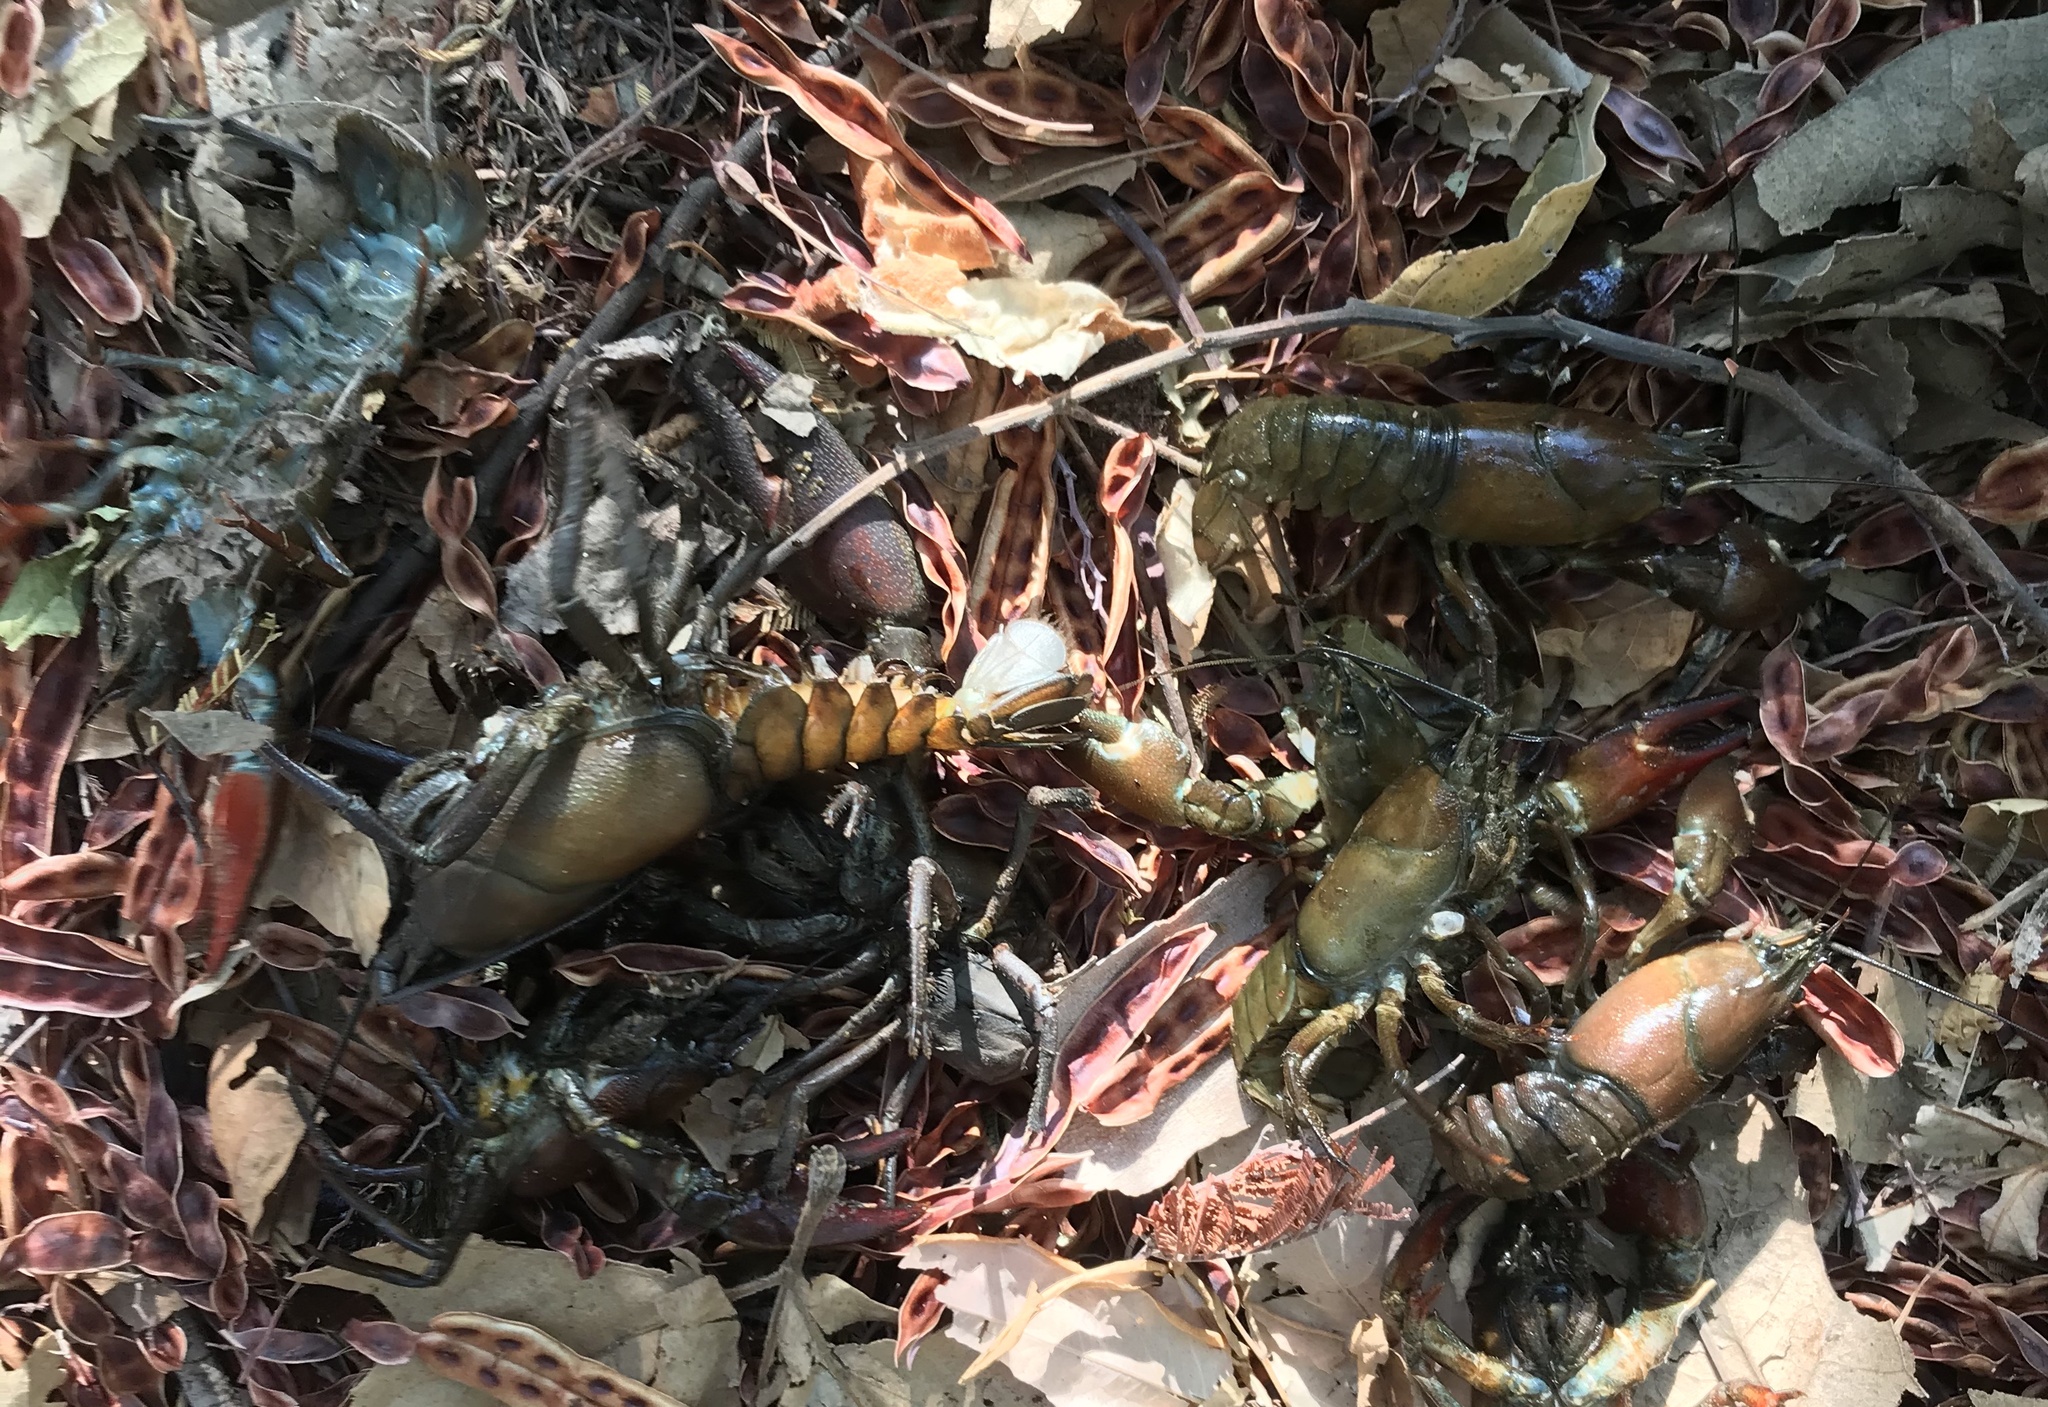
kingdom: Animalia
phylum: Arthropoda
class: Malacostraca
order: Decapoda
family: Astacidae
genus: Pacifastacus
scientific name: Pacifastacus leniusculus
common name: Signal crayfish
